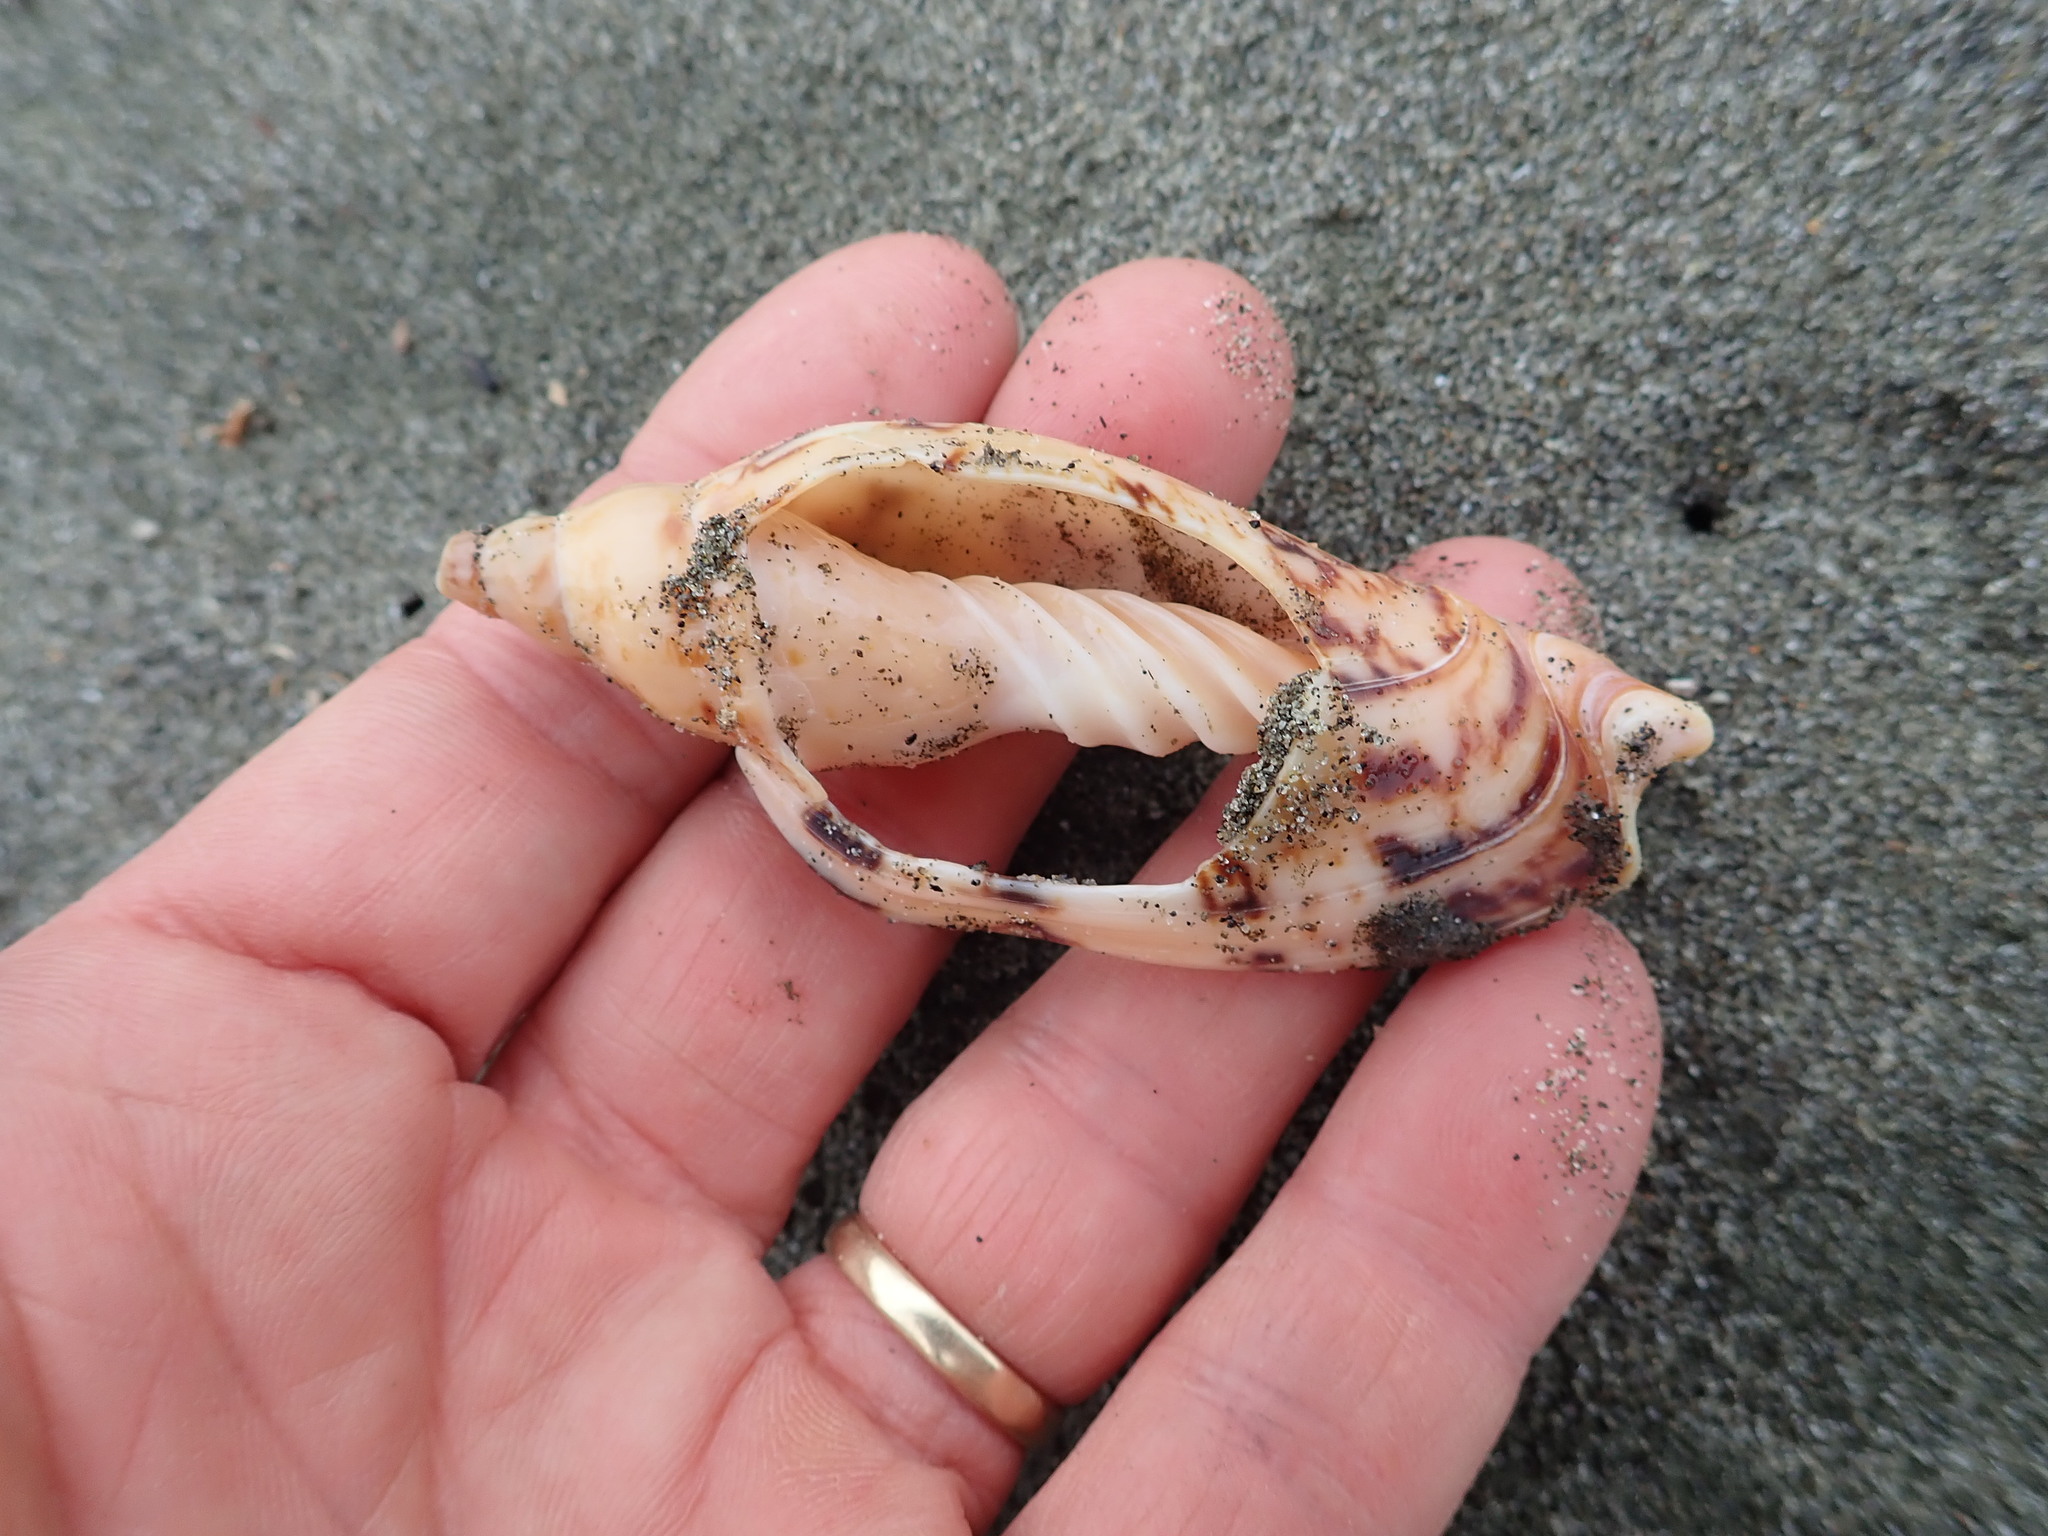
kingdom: Animalia
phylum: Mollusca
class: Gastropoda
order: Neogastropoda
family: Volutidae
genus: Alcithoe
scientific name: Alcithoe arabica
